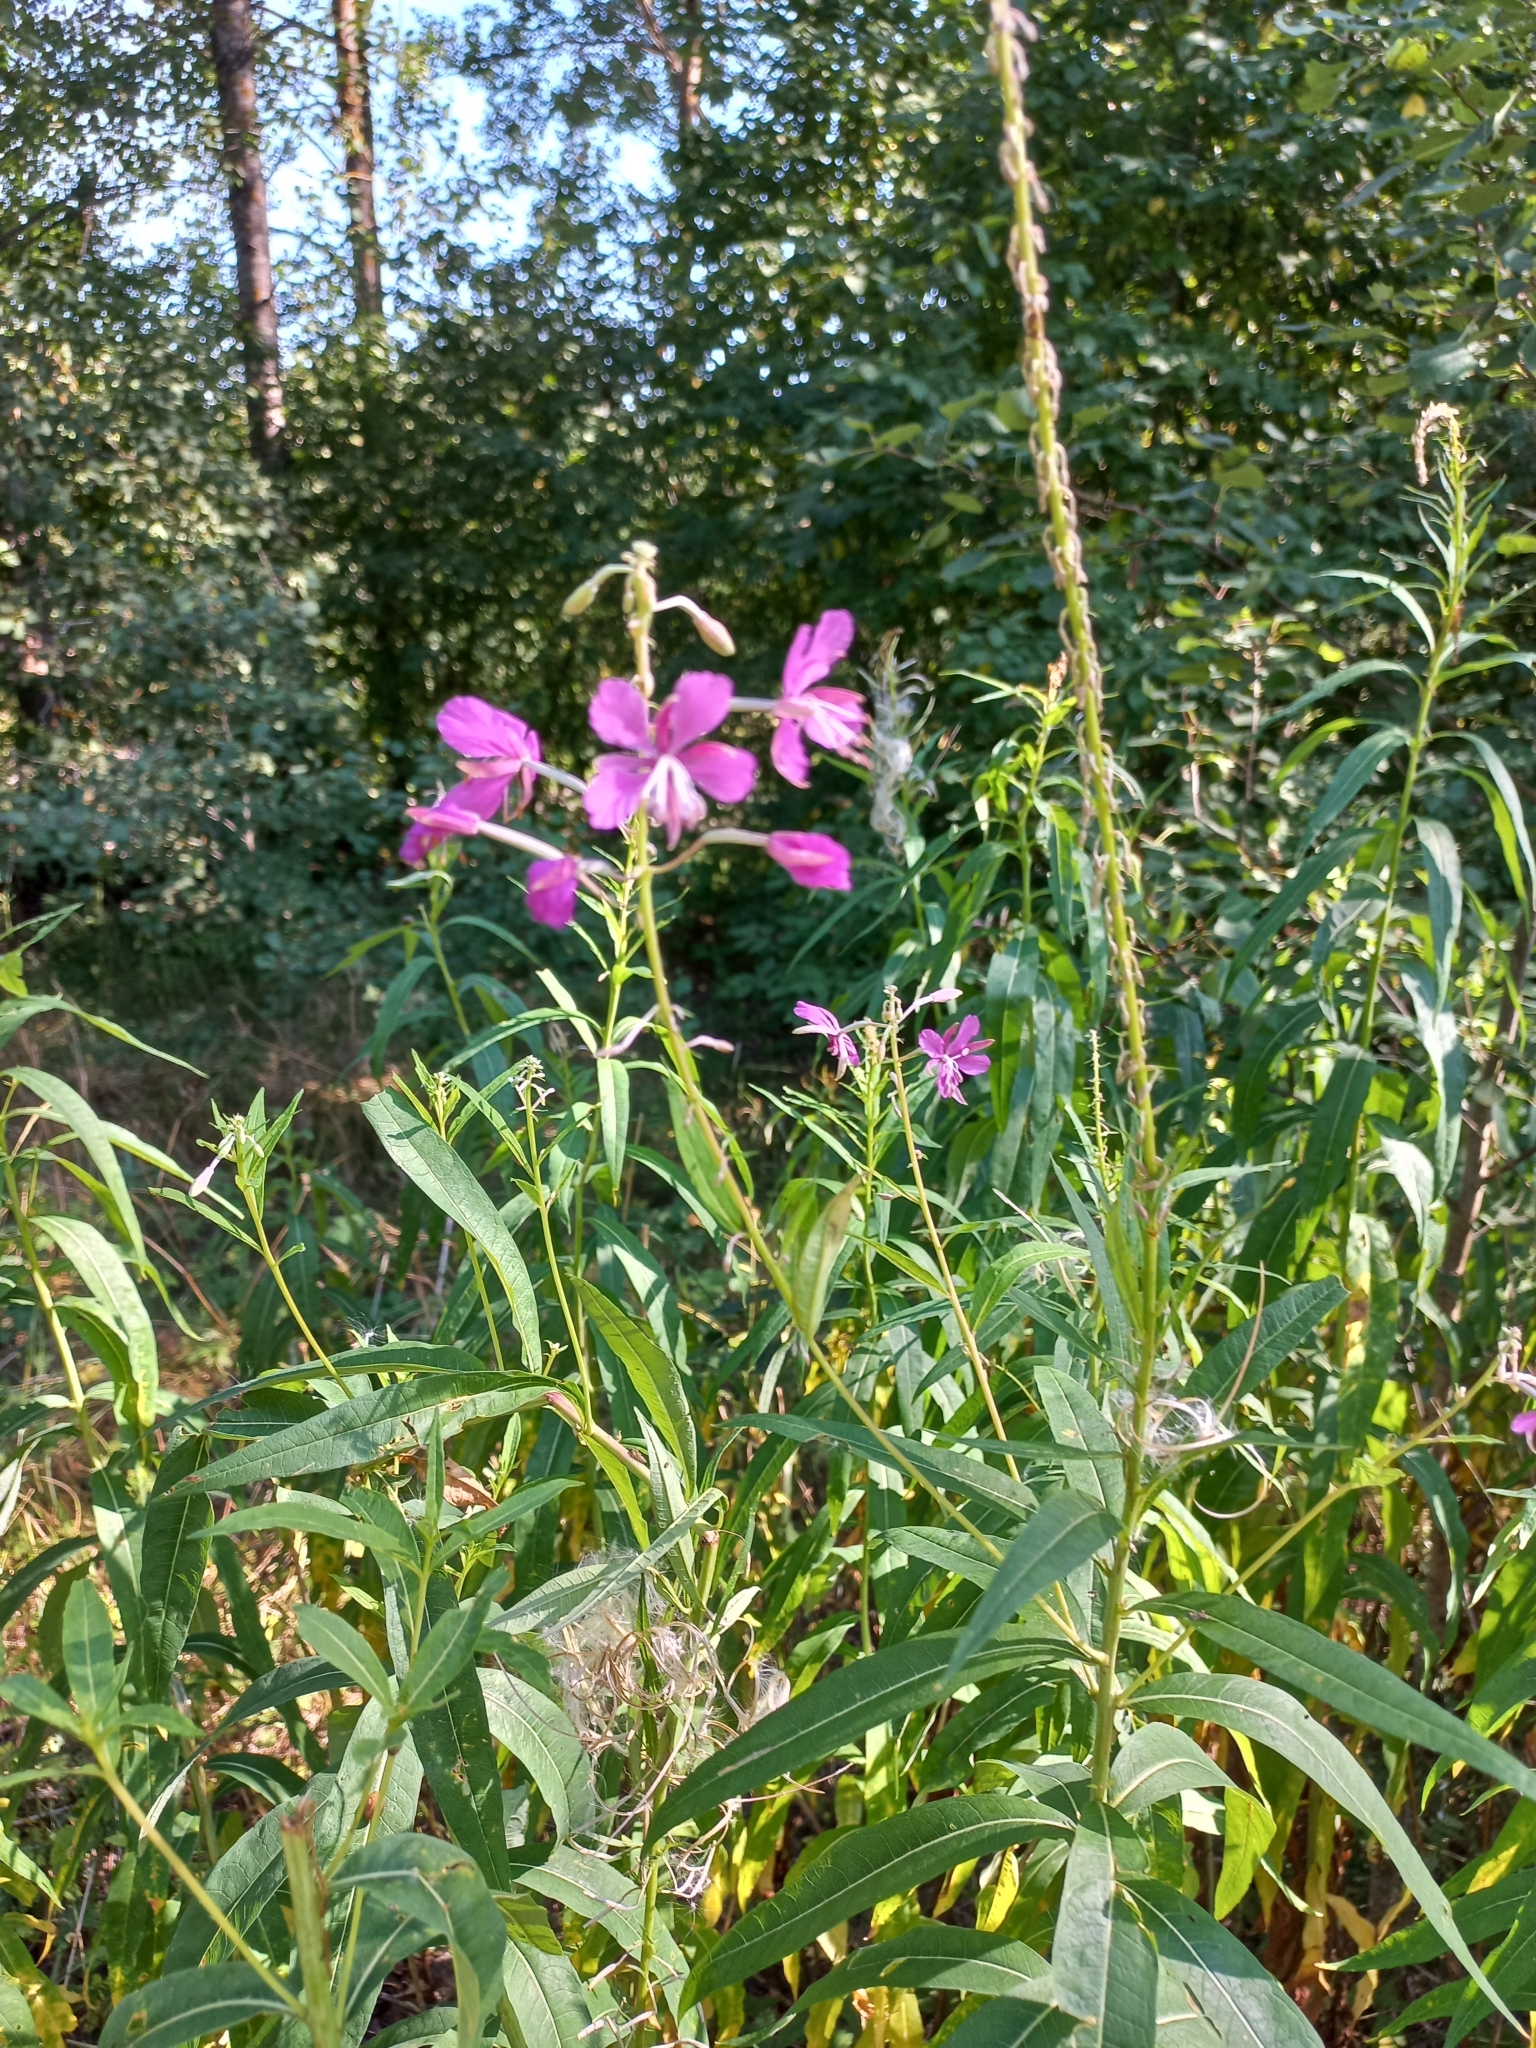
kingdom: Plantae
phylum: Tracheophyta
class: Magnoliopsida
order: Myrtales
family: Onagraceae
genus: Chamaenerion
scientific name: Chamaenerion angustifolium
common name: Fireweed
